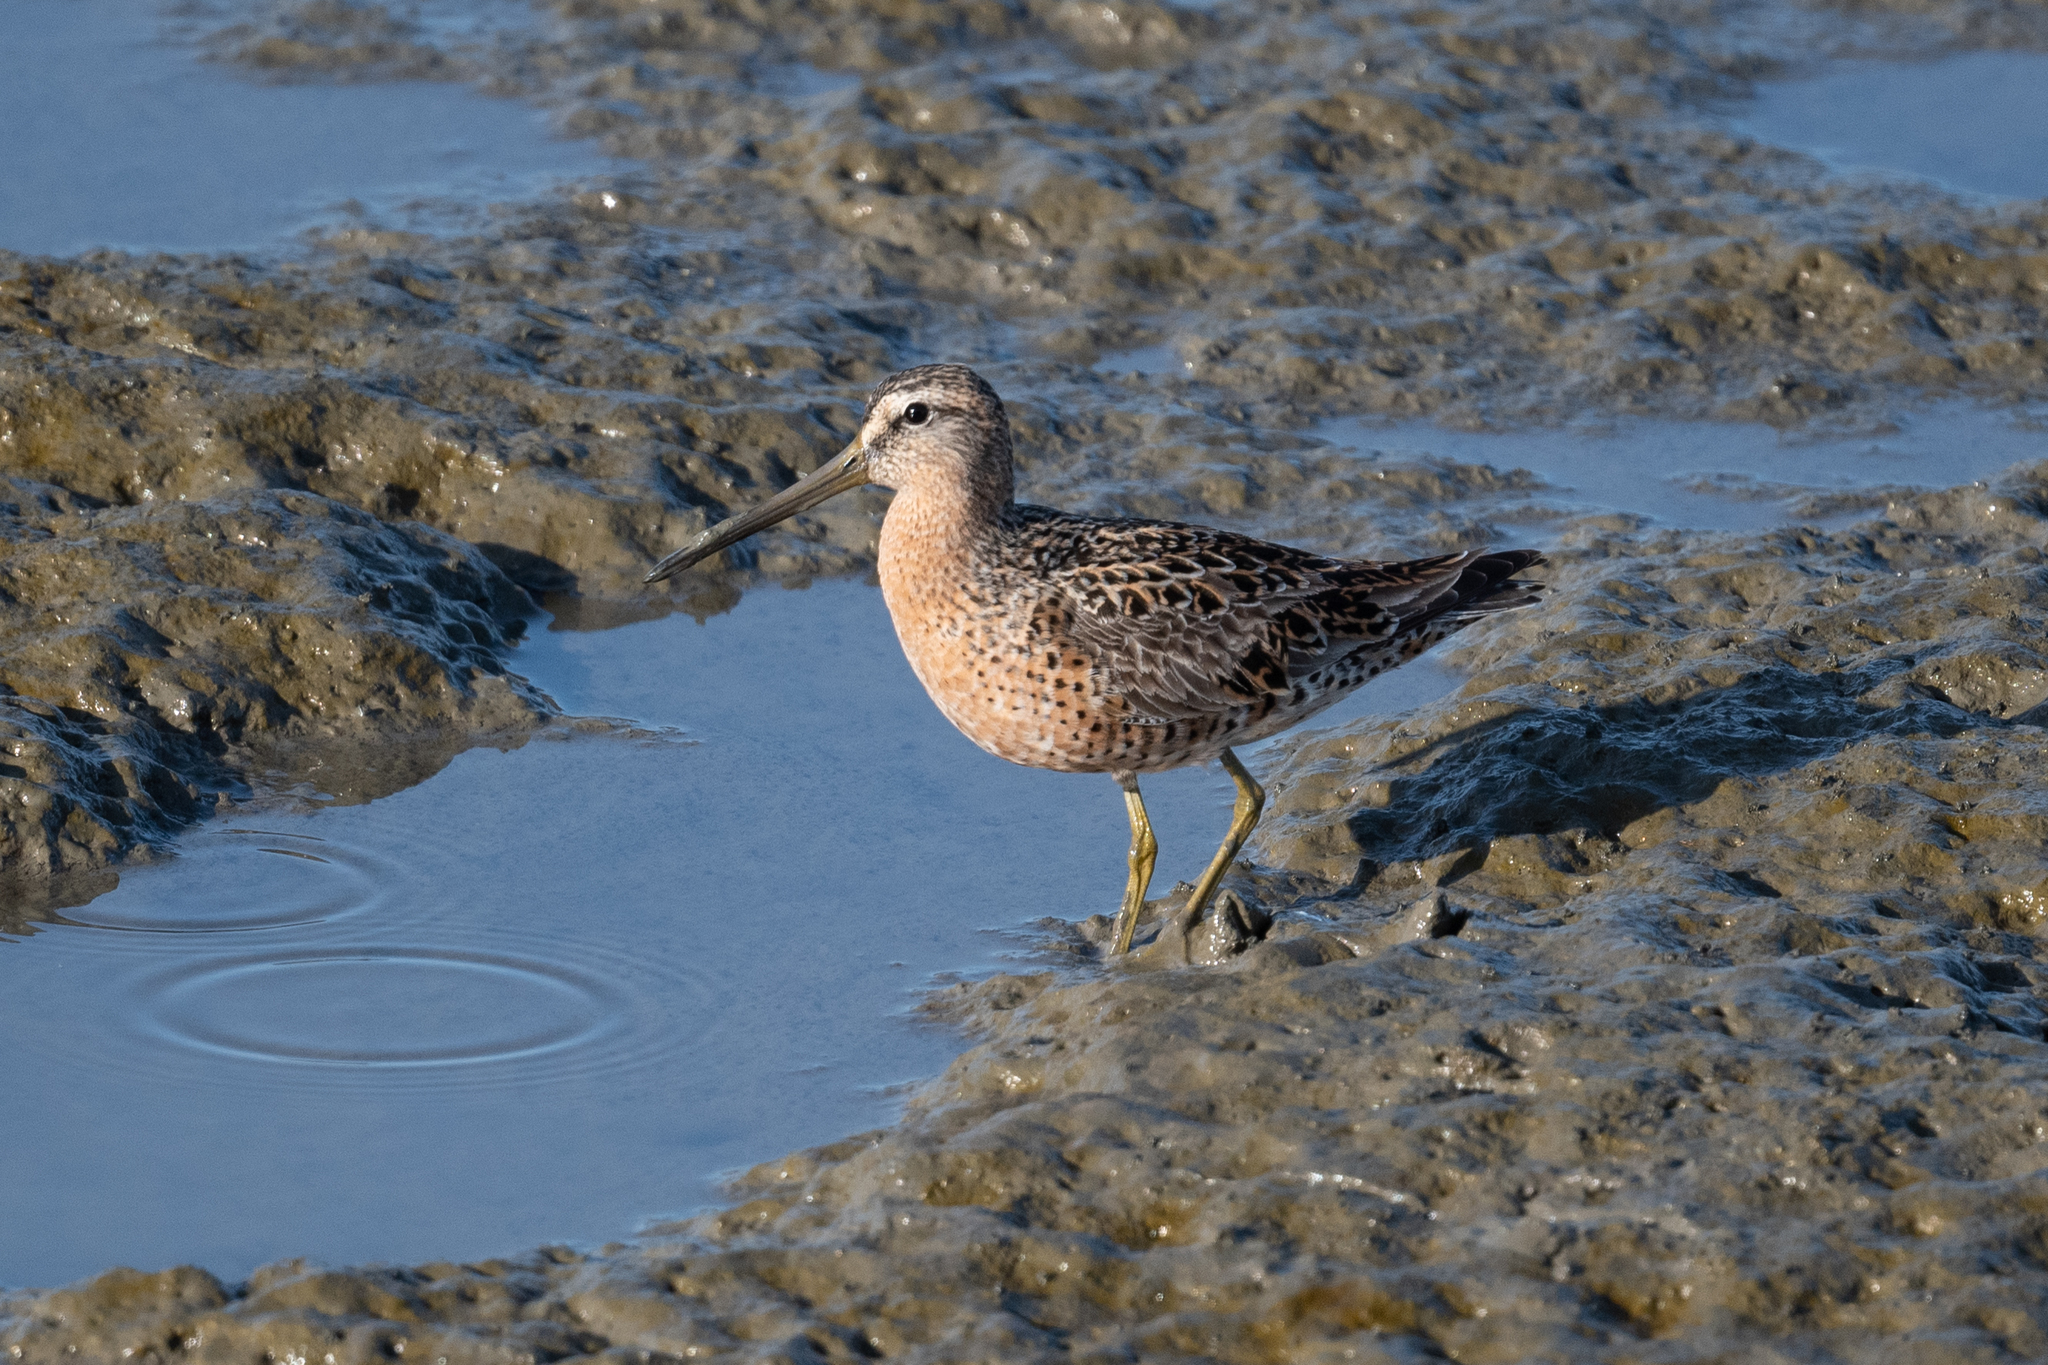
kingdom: Animalia
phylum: Chordata
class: Aves
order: Charadriiformes
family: Scolopacidae
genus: Limnodromus
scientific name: Limnodromus griseus
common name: Short-billed dowitcher
